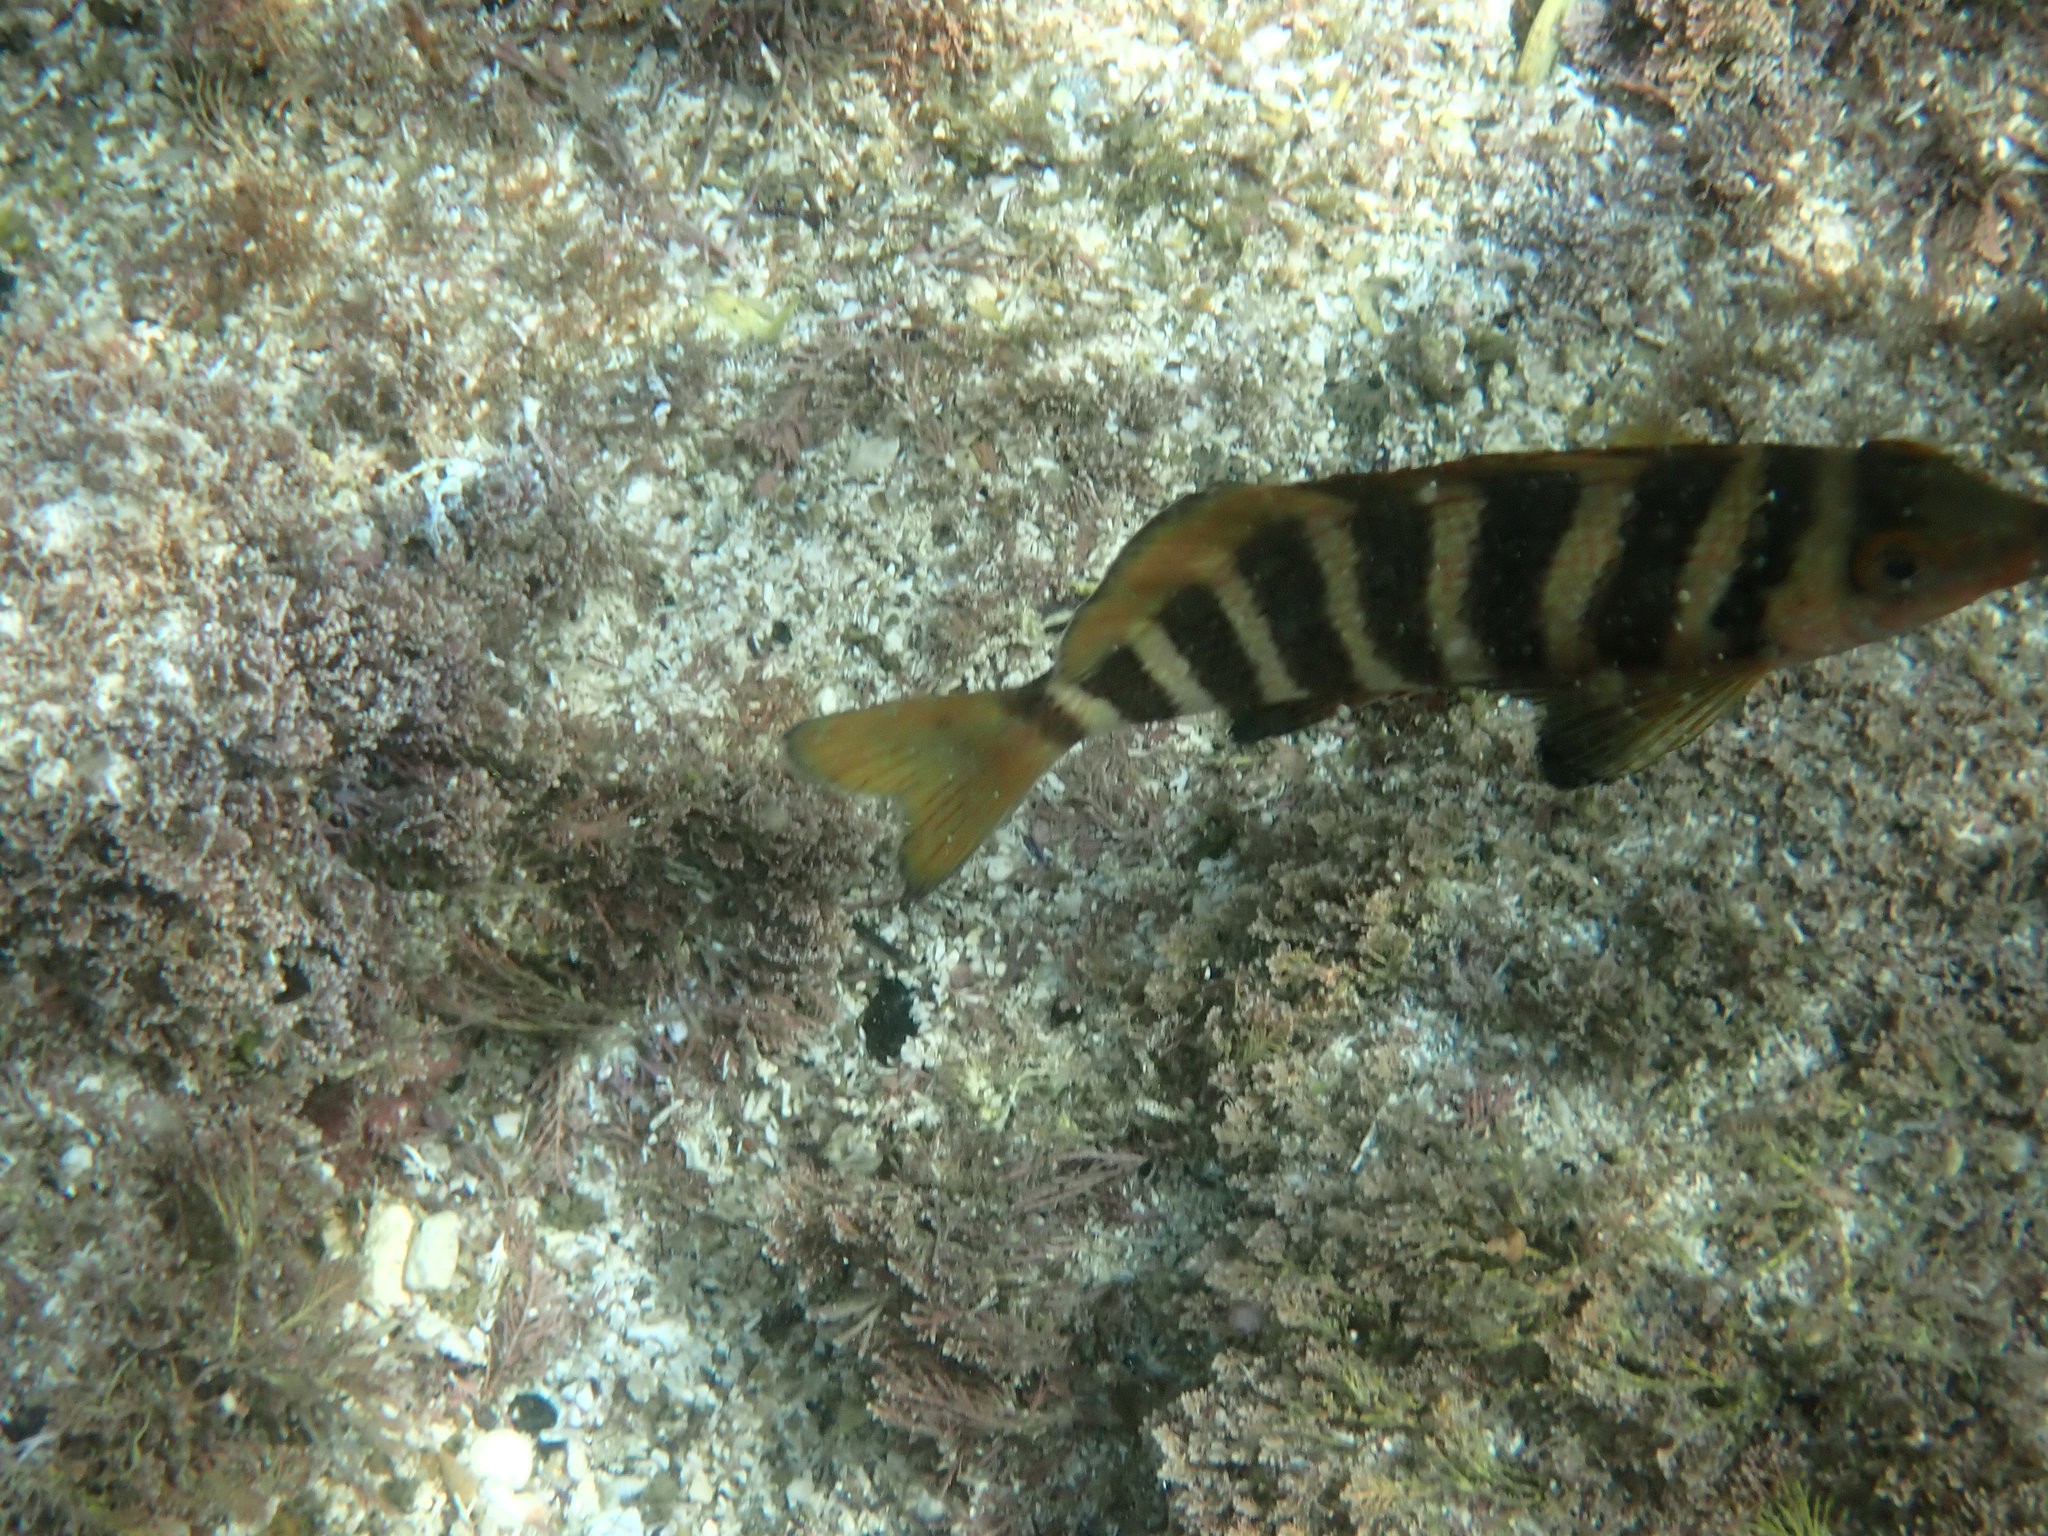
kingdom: Animalia
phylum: Chordata
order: Perciformes
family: Cheilodactylidae
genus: Cheilodactylus
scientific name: Cheilodactylus spectabilis
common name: Red moki
